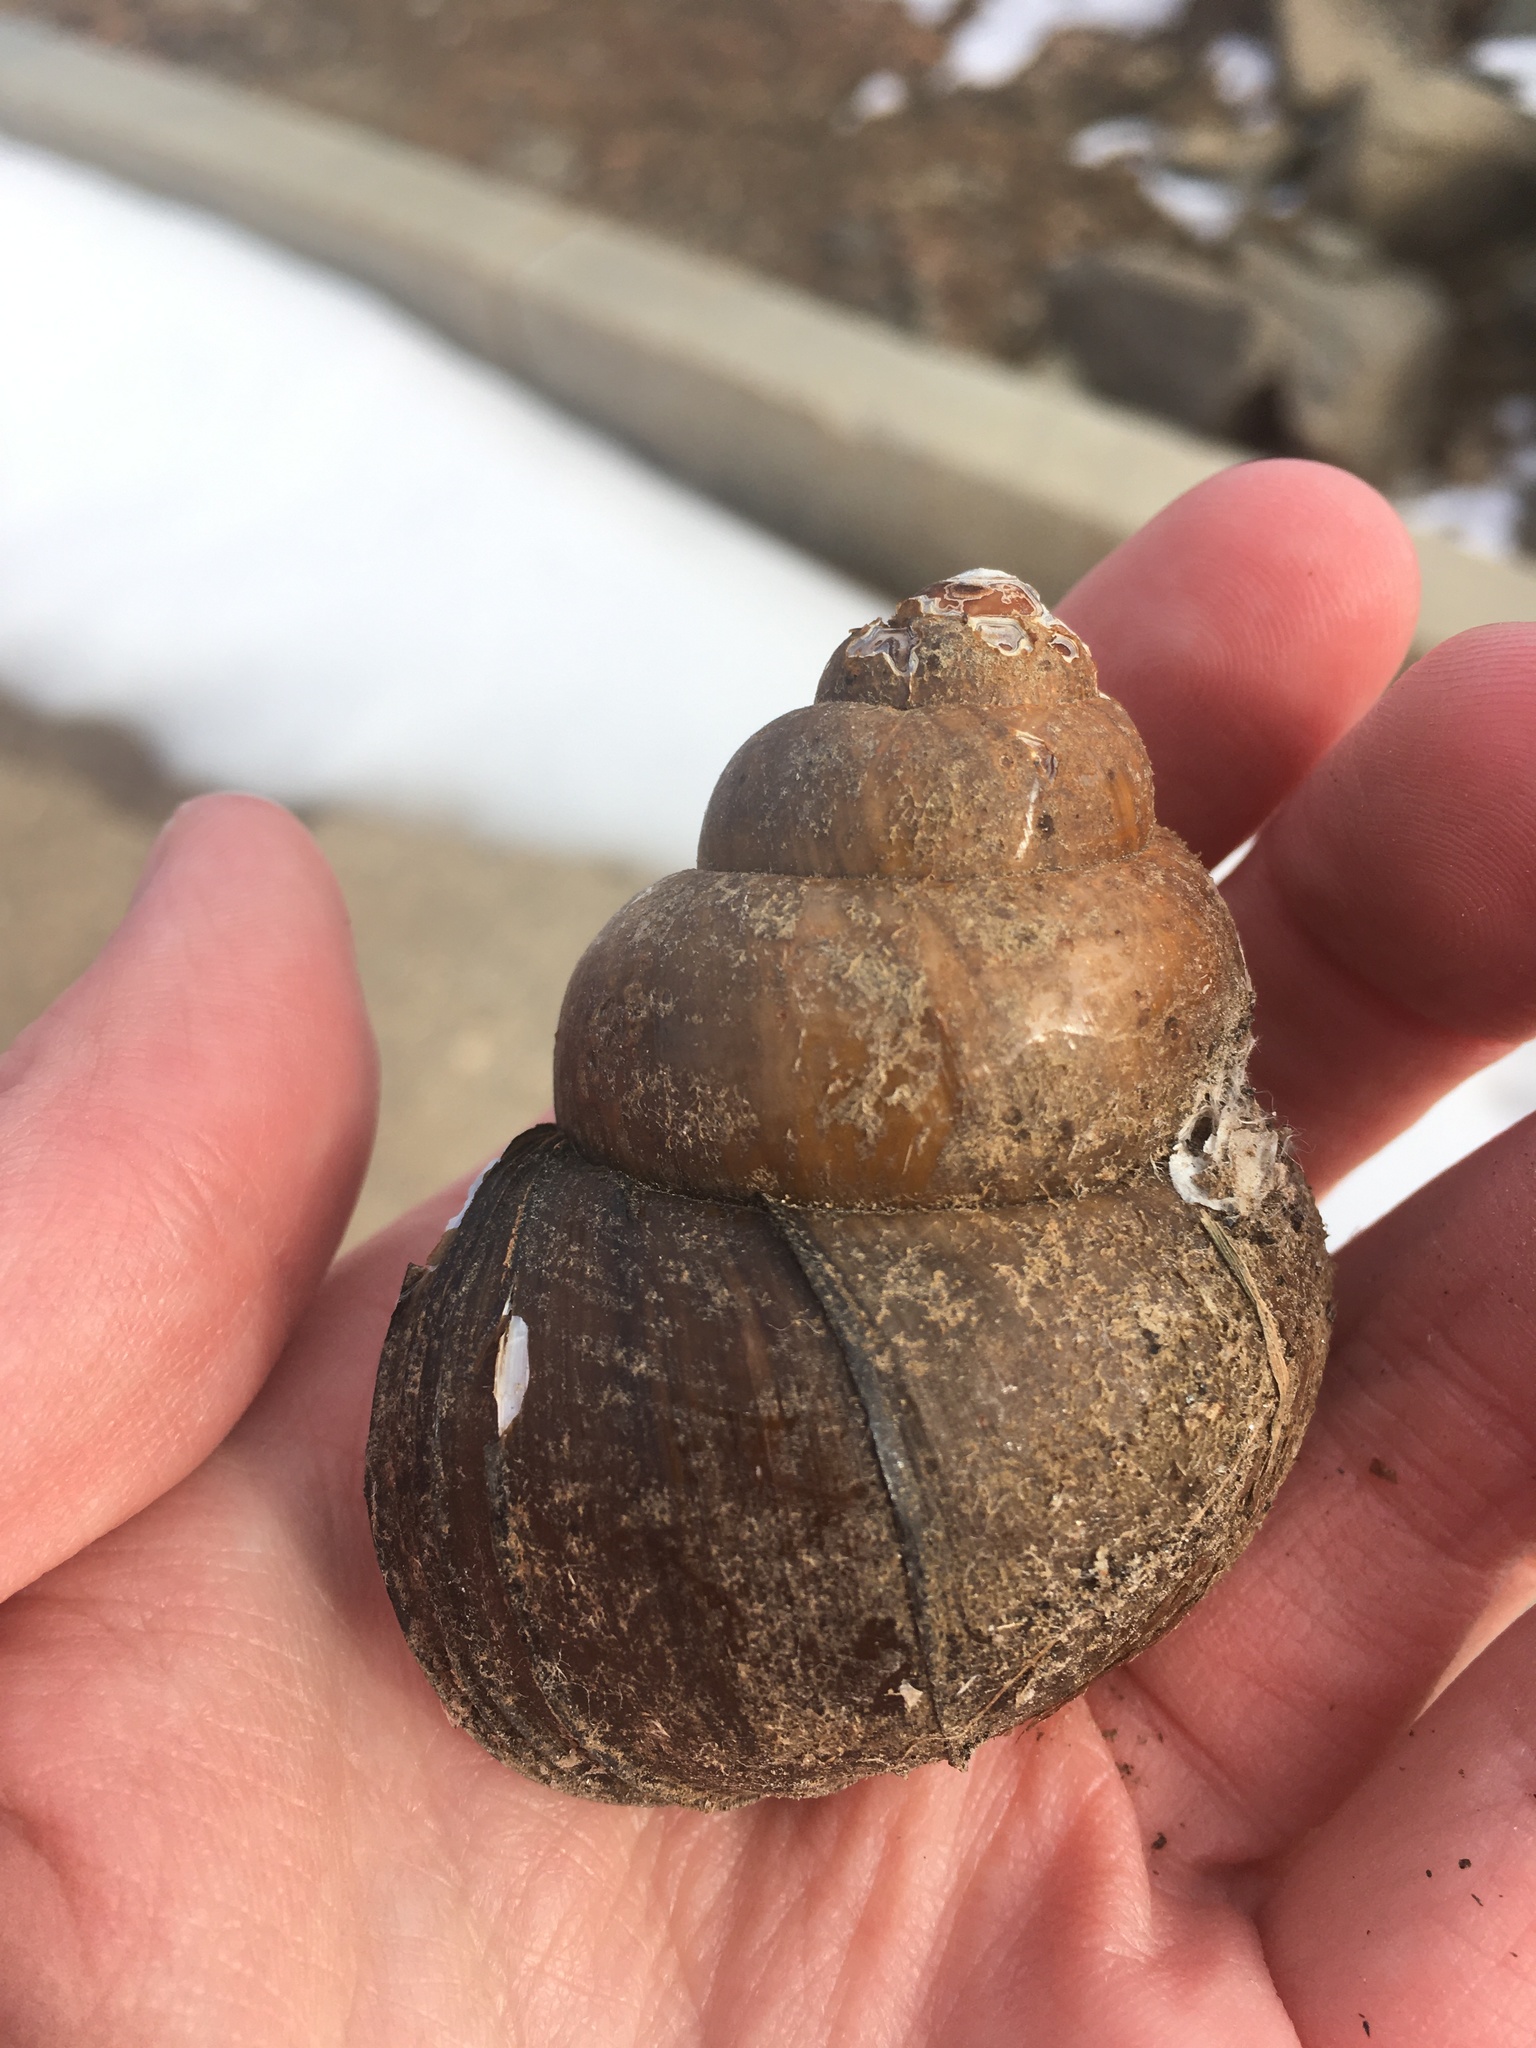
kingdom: Animalia
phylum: Mollusca
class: Gastropoda
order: Architaenioglossa
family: Viviparidae
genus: Cipangopaludina
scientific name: Cipangopaludina chinensis
